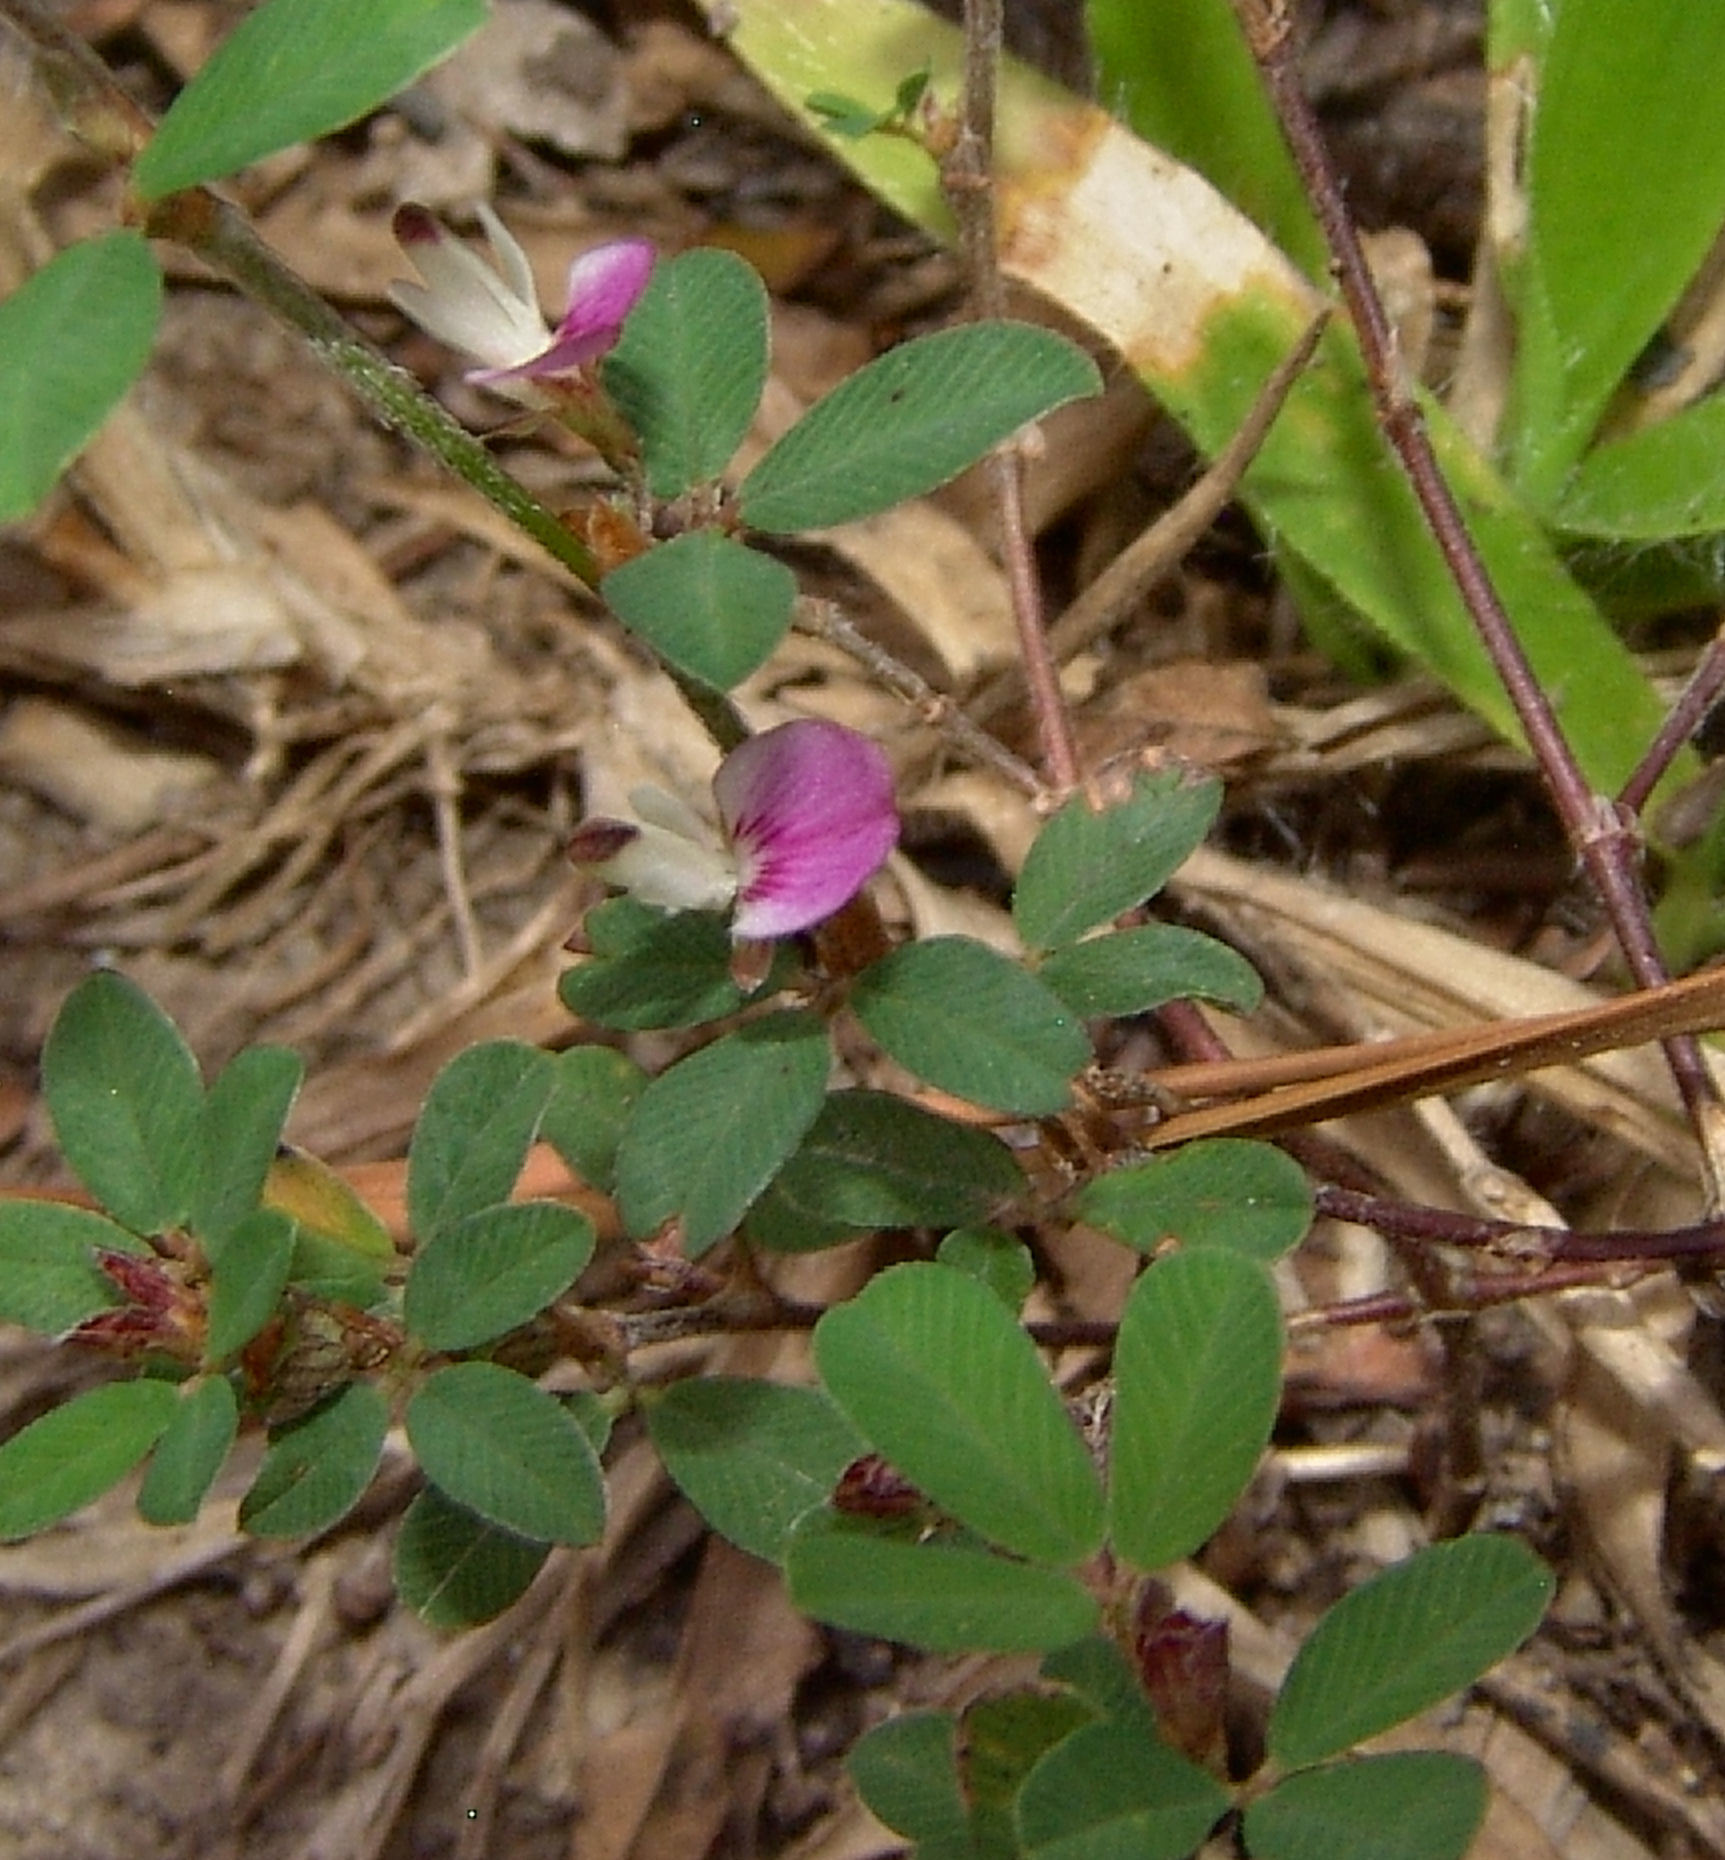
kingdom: Plantae
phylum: Tracheophyta
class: Magnoliopsida
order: Fabales
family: Fabaceae
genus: Kummerowia
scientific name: Kummerowia striata
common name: Japanese clover
